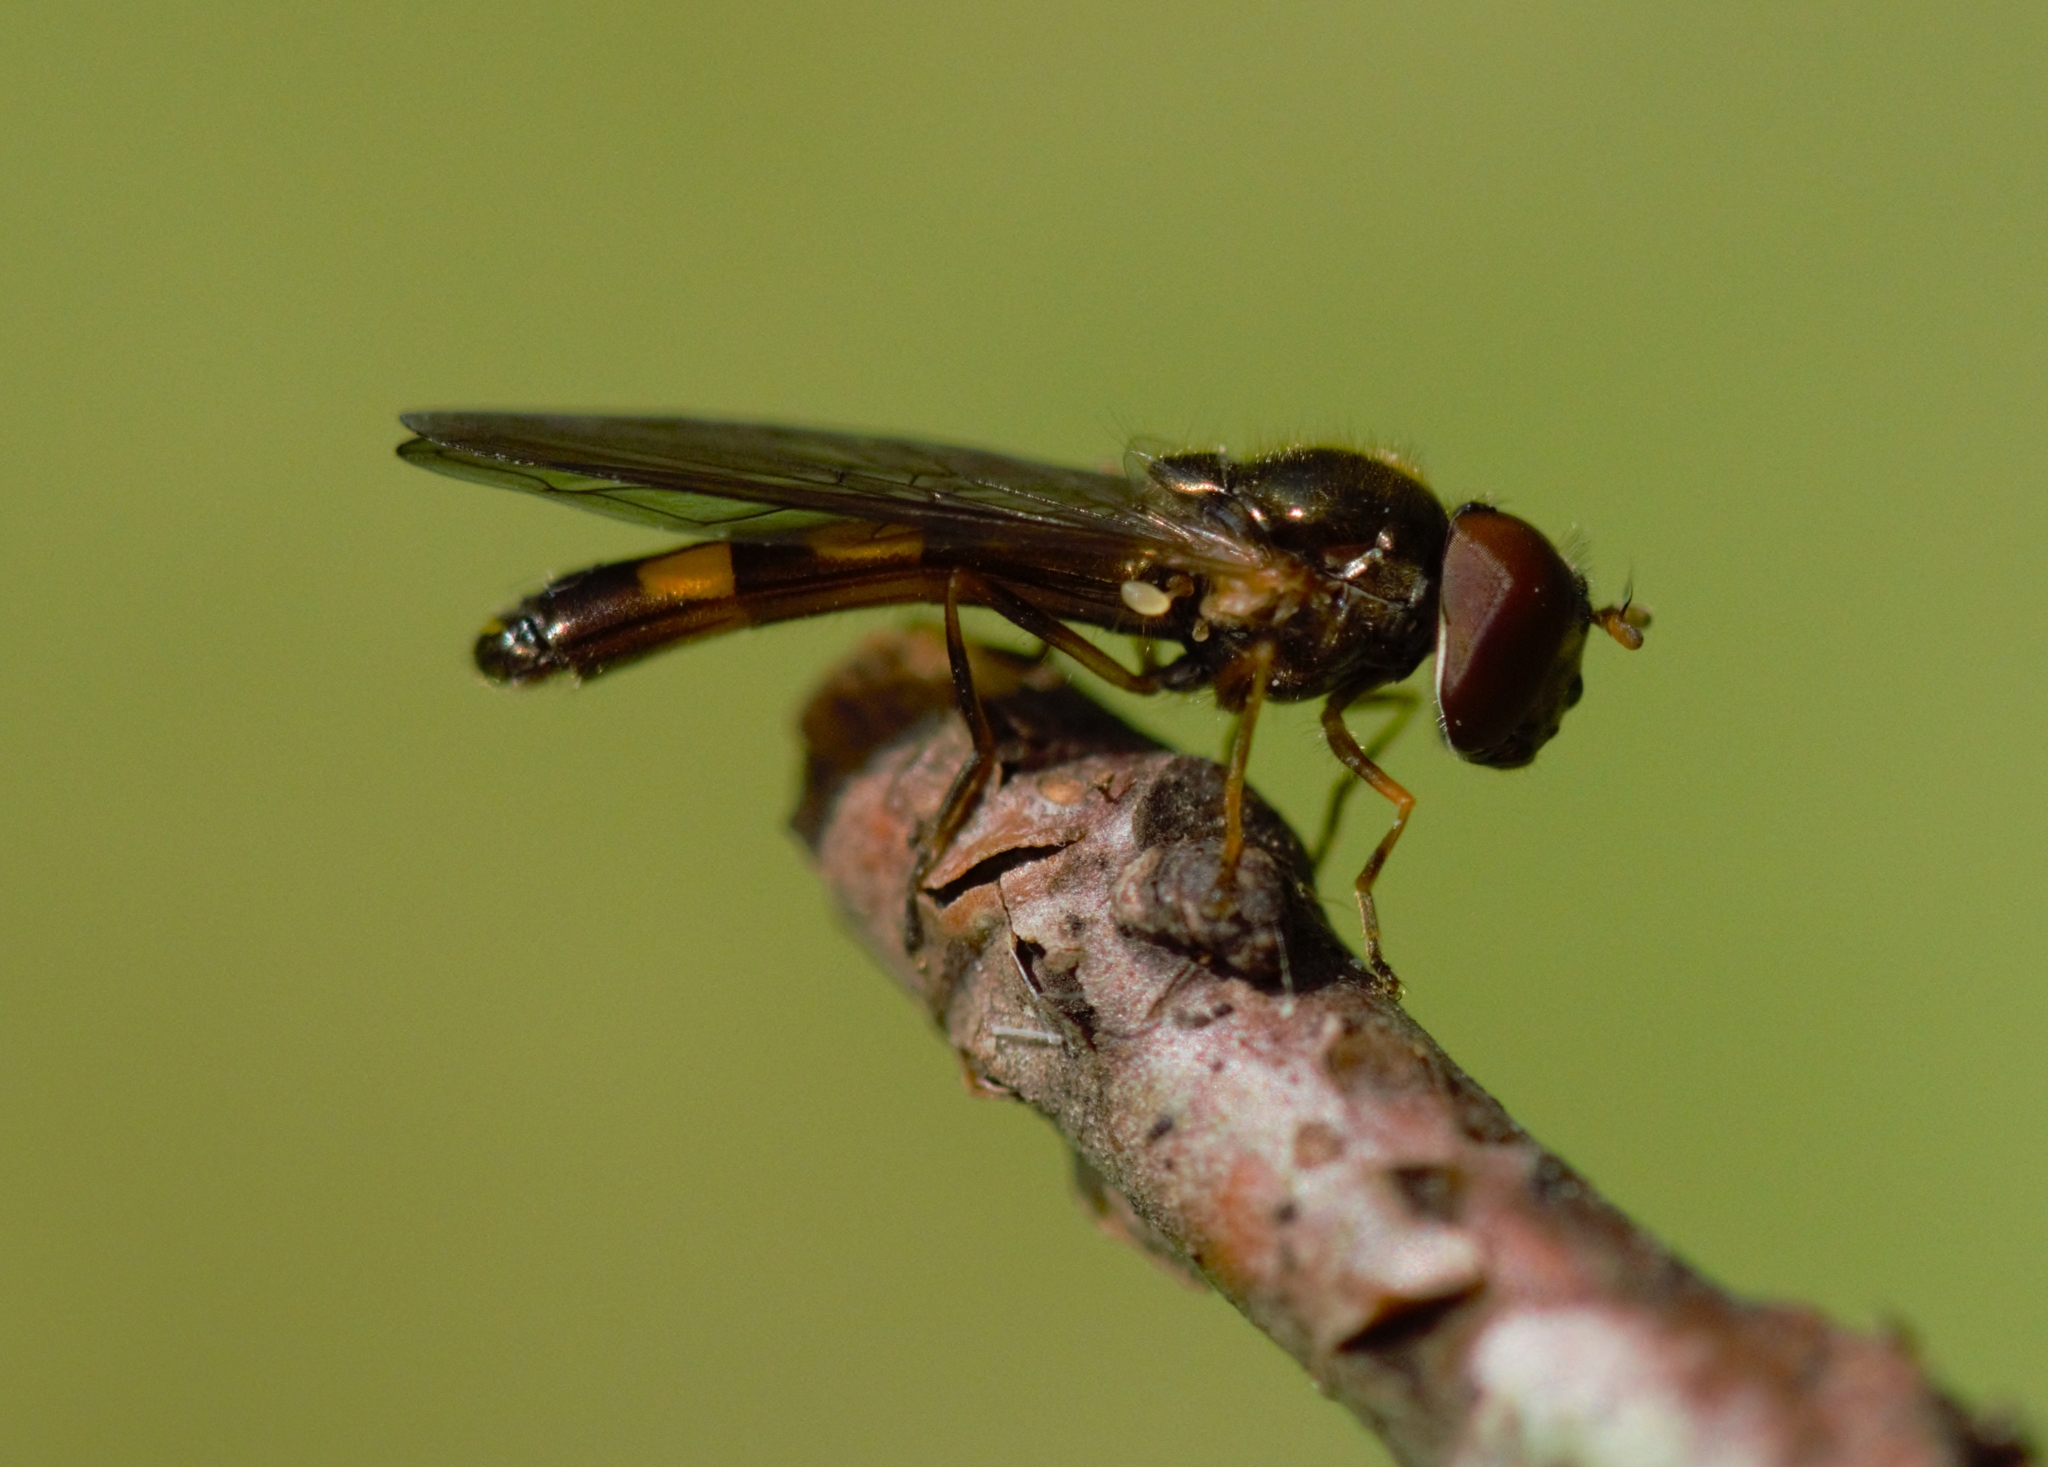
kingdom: Animalia
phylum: Arthropoda
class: Insecta
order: Diptera
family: Syrphidae
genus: Melanostoma
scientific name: Melanostoma scalare
